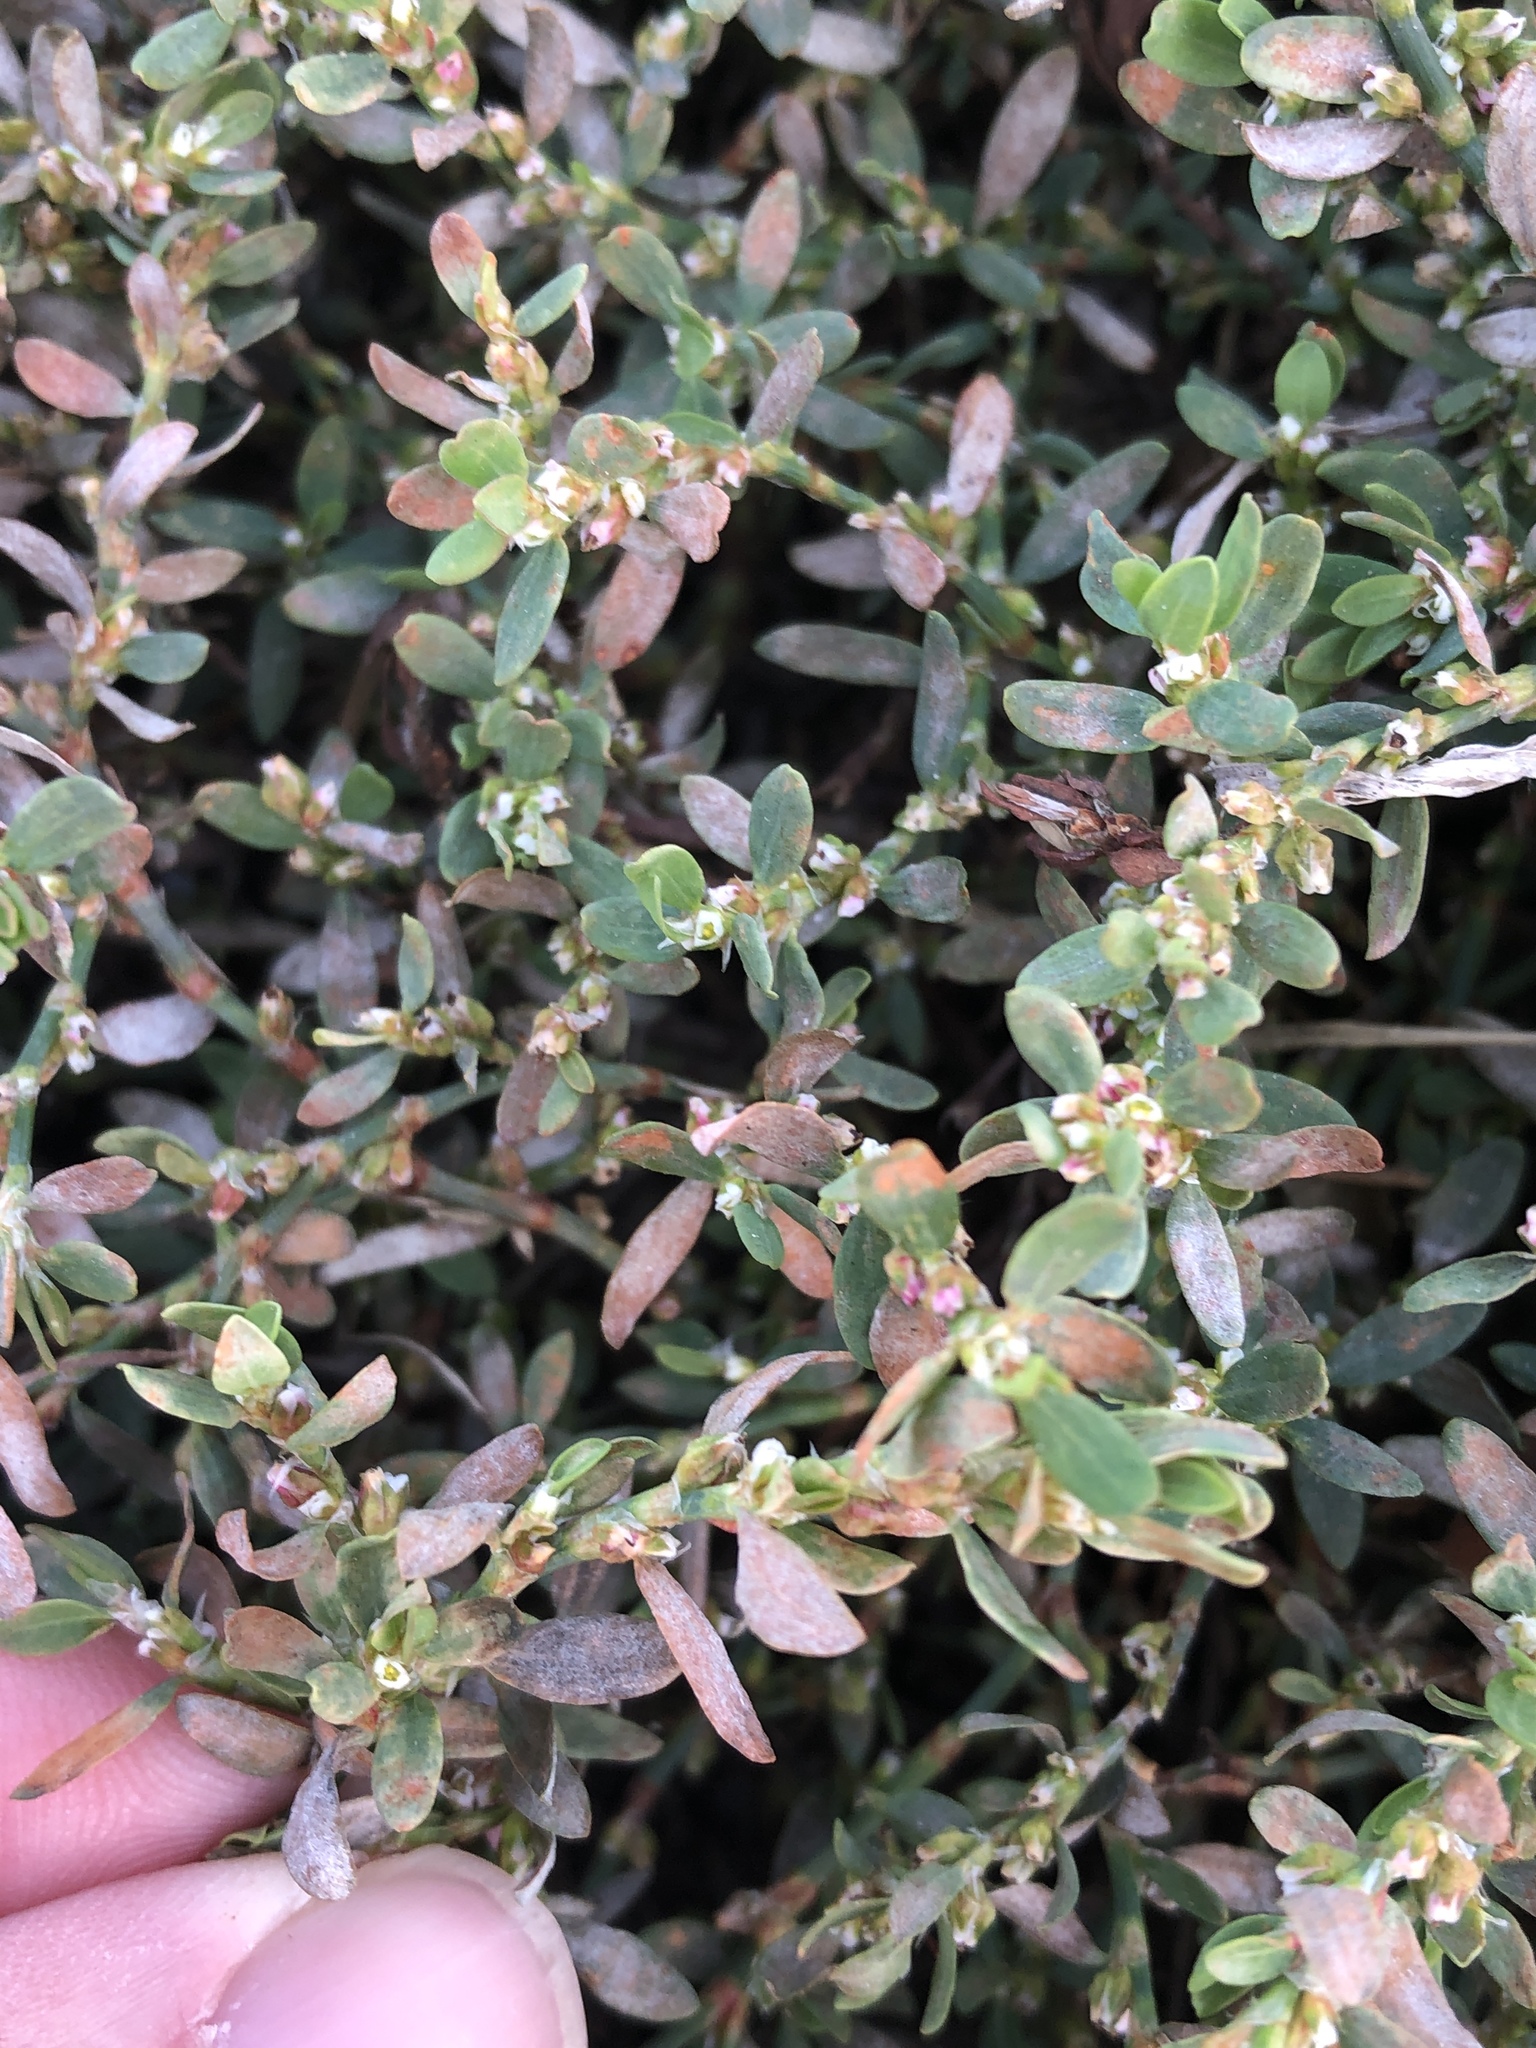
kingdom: Plantae
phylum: Tracheophyta
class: Magnoliopsida
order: Caryophyllales
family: Polygonaceae
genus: Polygonum
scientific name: Polygonum aviculare
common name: Prostrate knotweed
